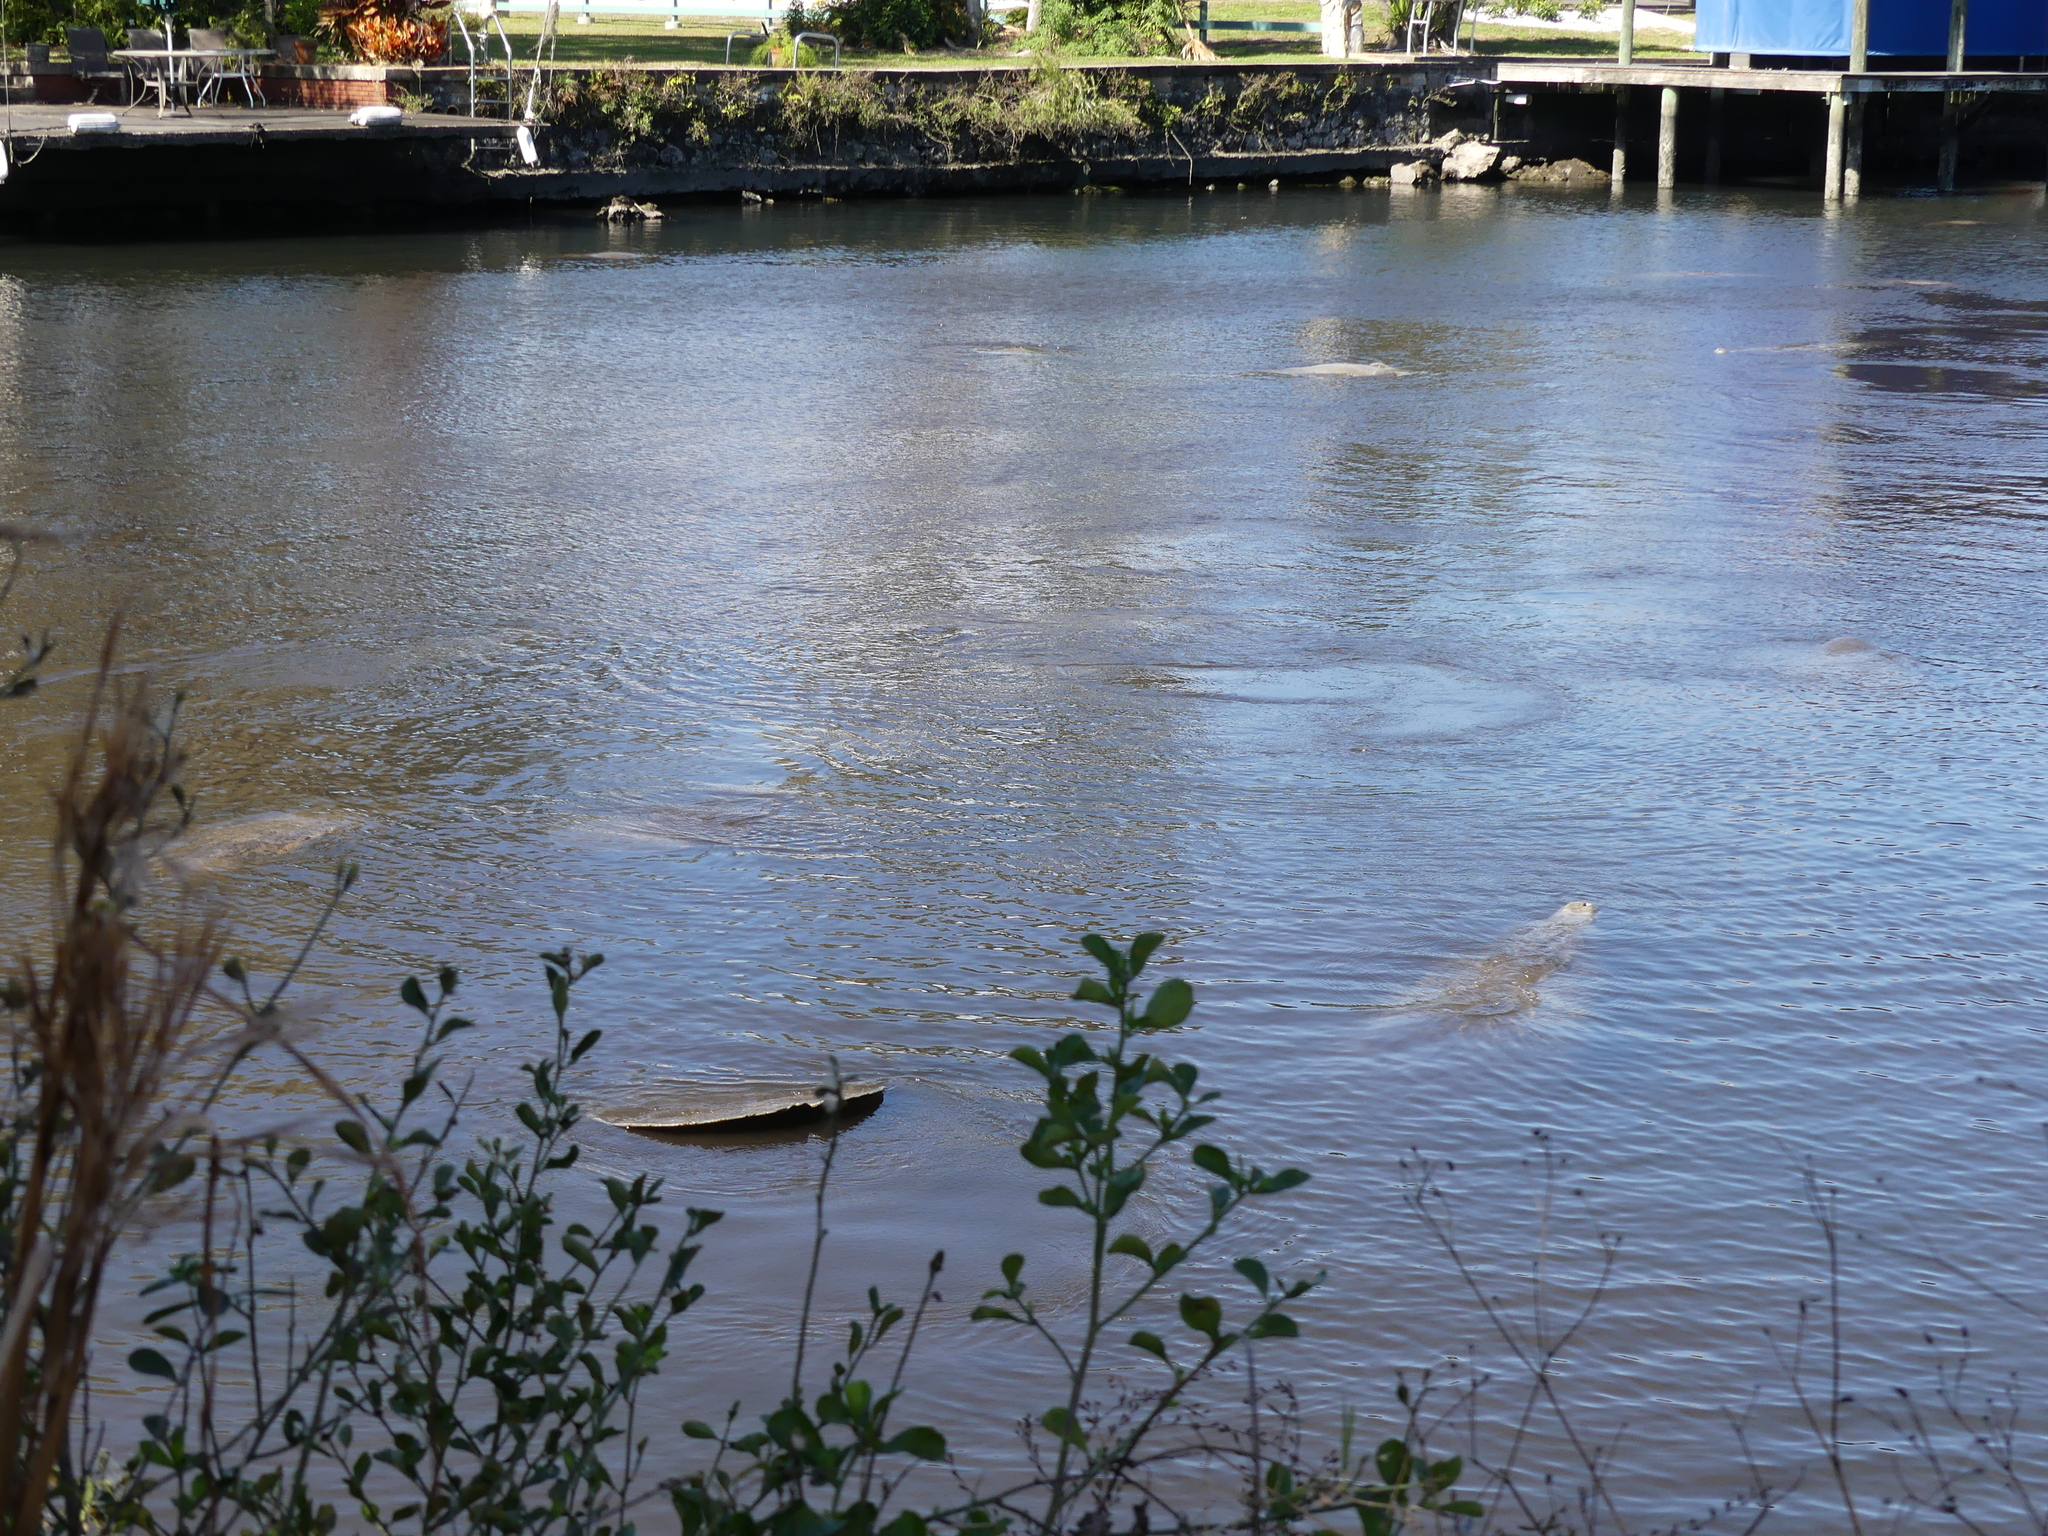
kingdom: Animalia
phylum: Chordata
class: Mammalia
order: Sirenia
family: Trichechidae
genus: Trichechus
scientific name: Trichechus manatus
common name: West indian manatee
